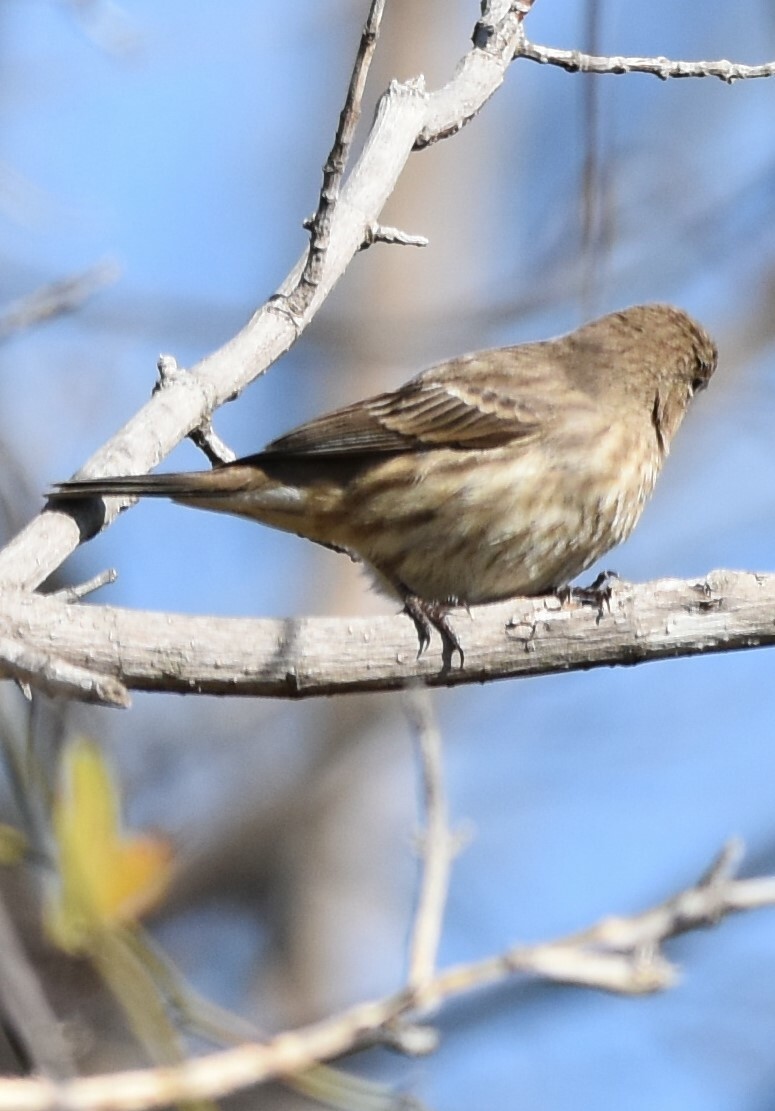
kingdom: Animalia
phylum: Chordata
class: Aves
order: Passeriformes
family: Fringillidae
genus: Haemorhous
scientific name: Haemorhous mexicanus
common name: House finch
